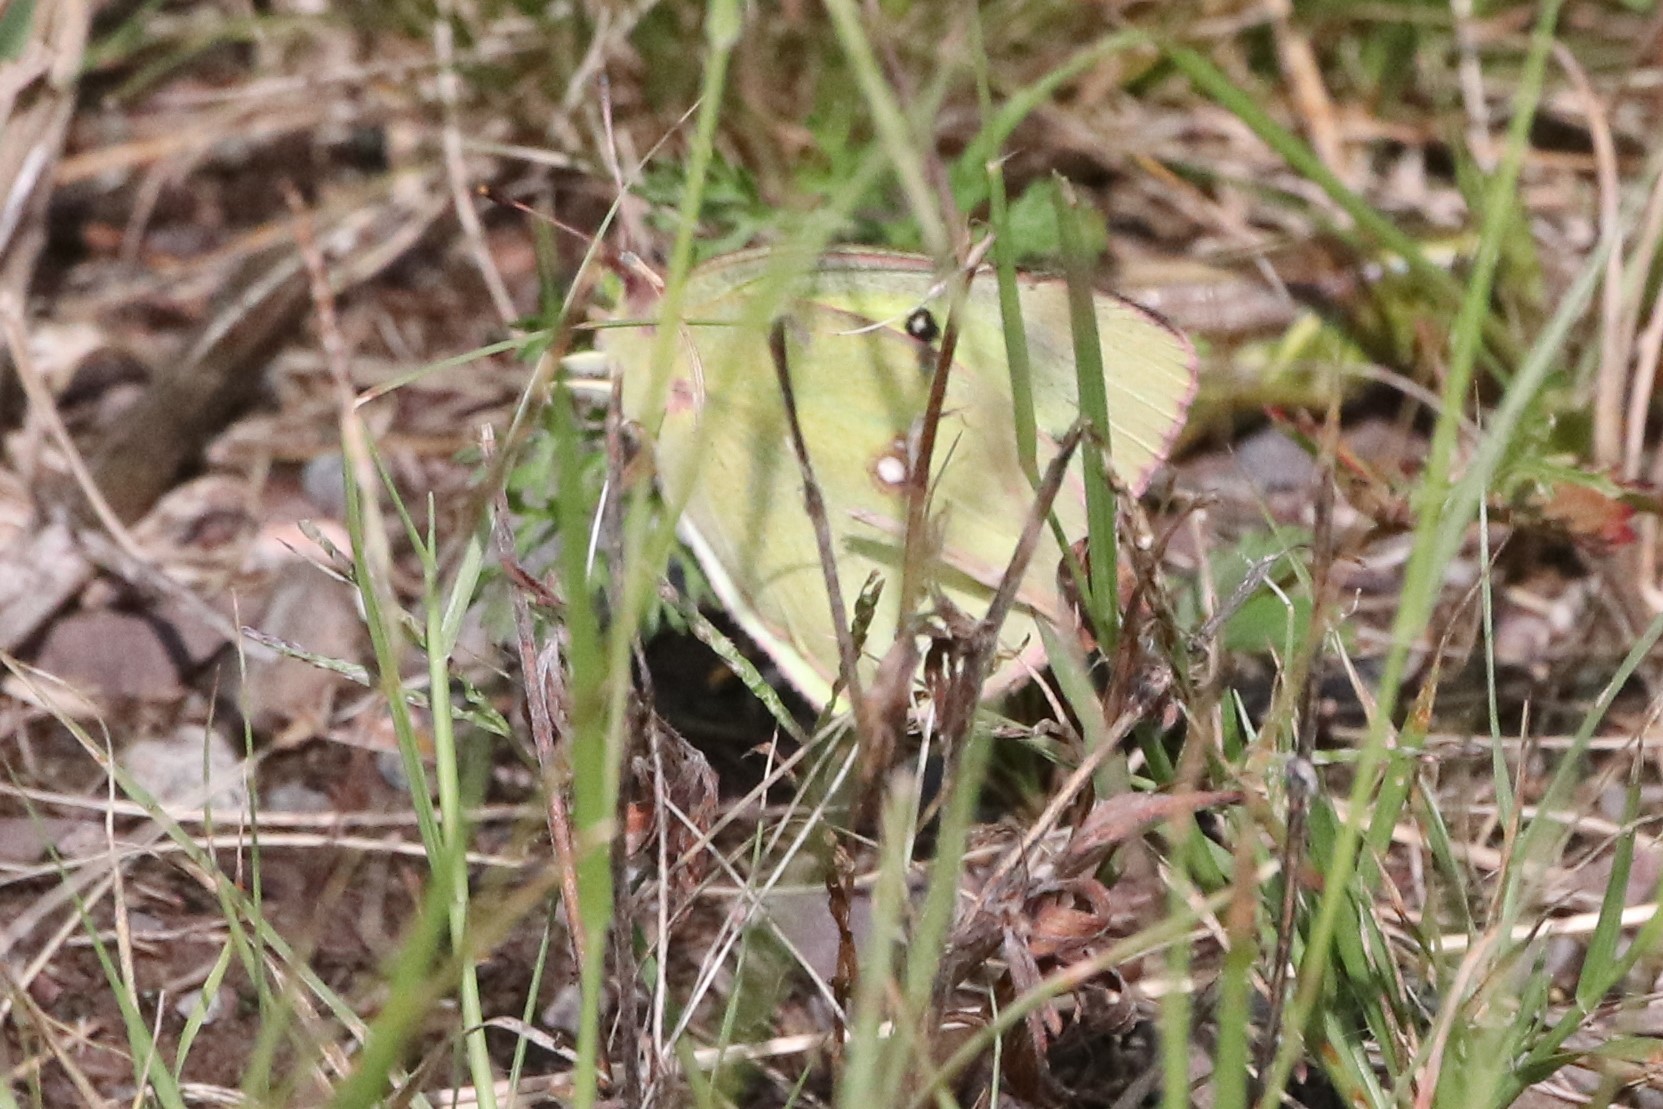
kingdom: Animalia
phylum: Arthropoda
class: Insecta
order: Lepidoptera
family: Pieridae
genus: Colias
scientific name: Colias philodice
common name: Clouded sulphur
